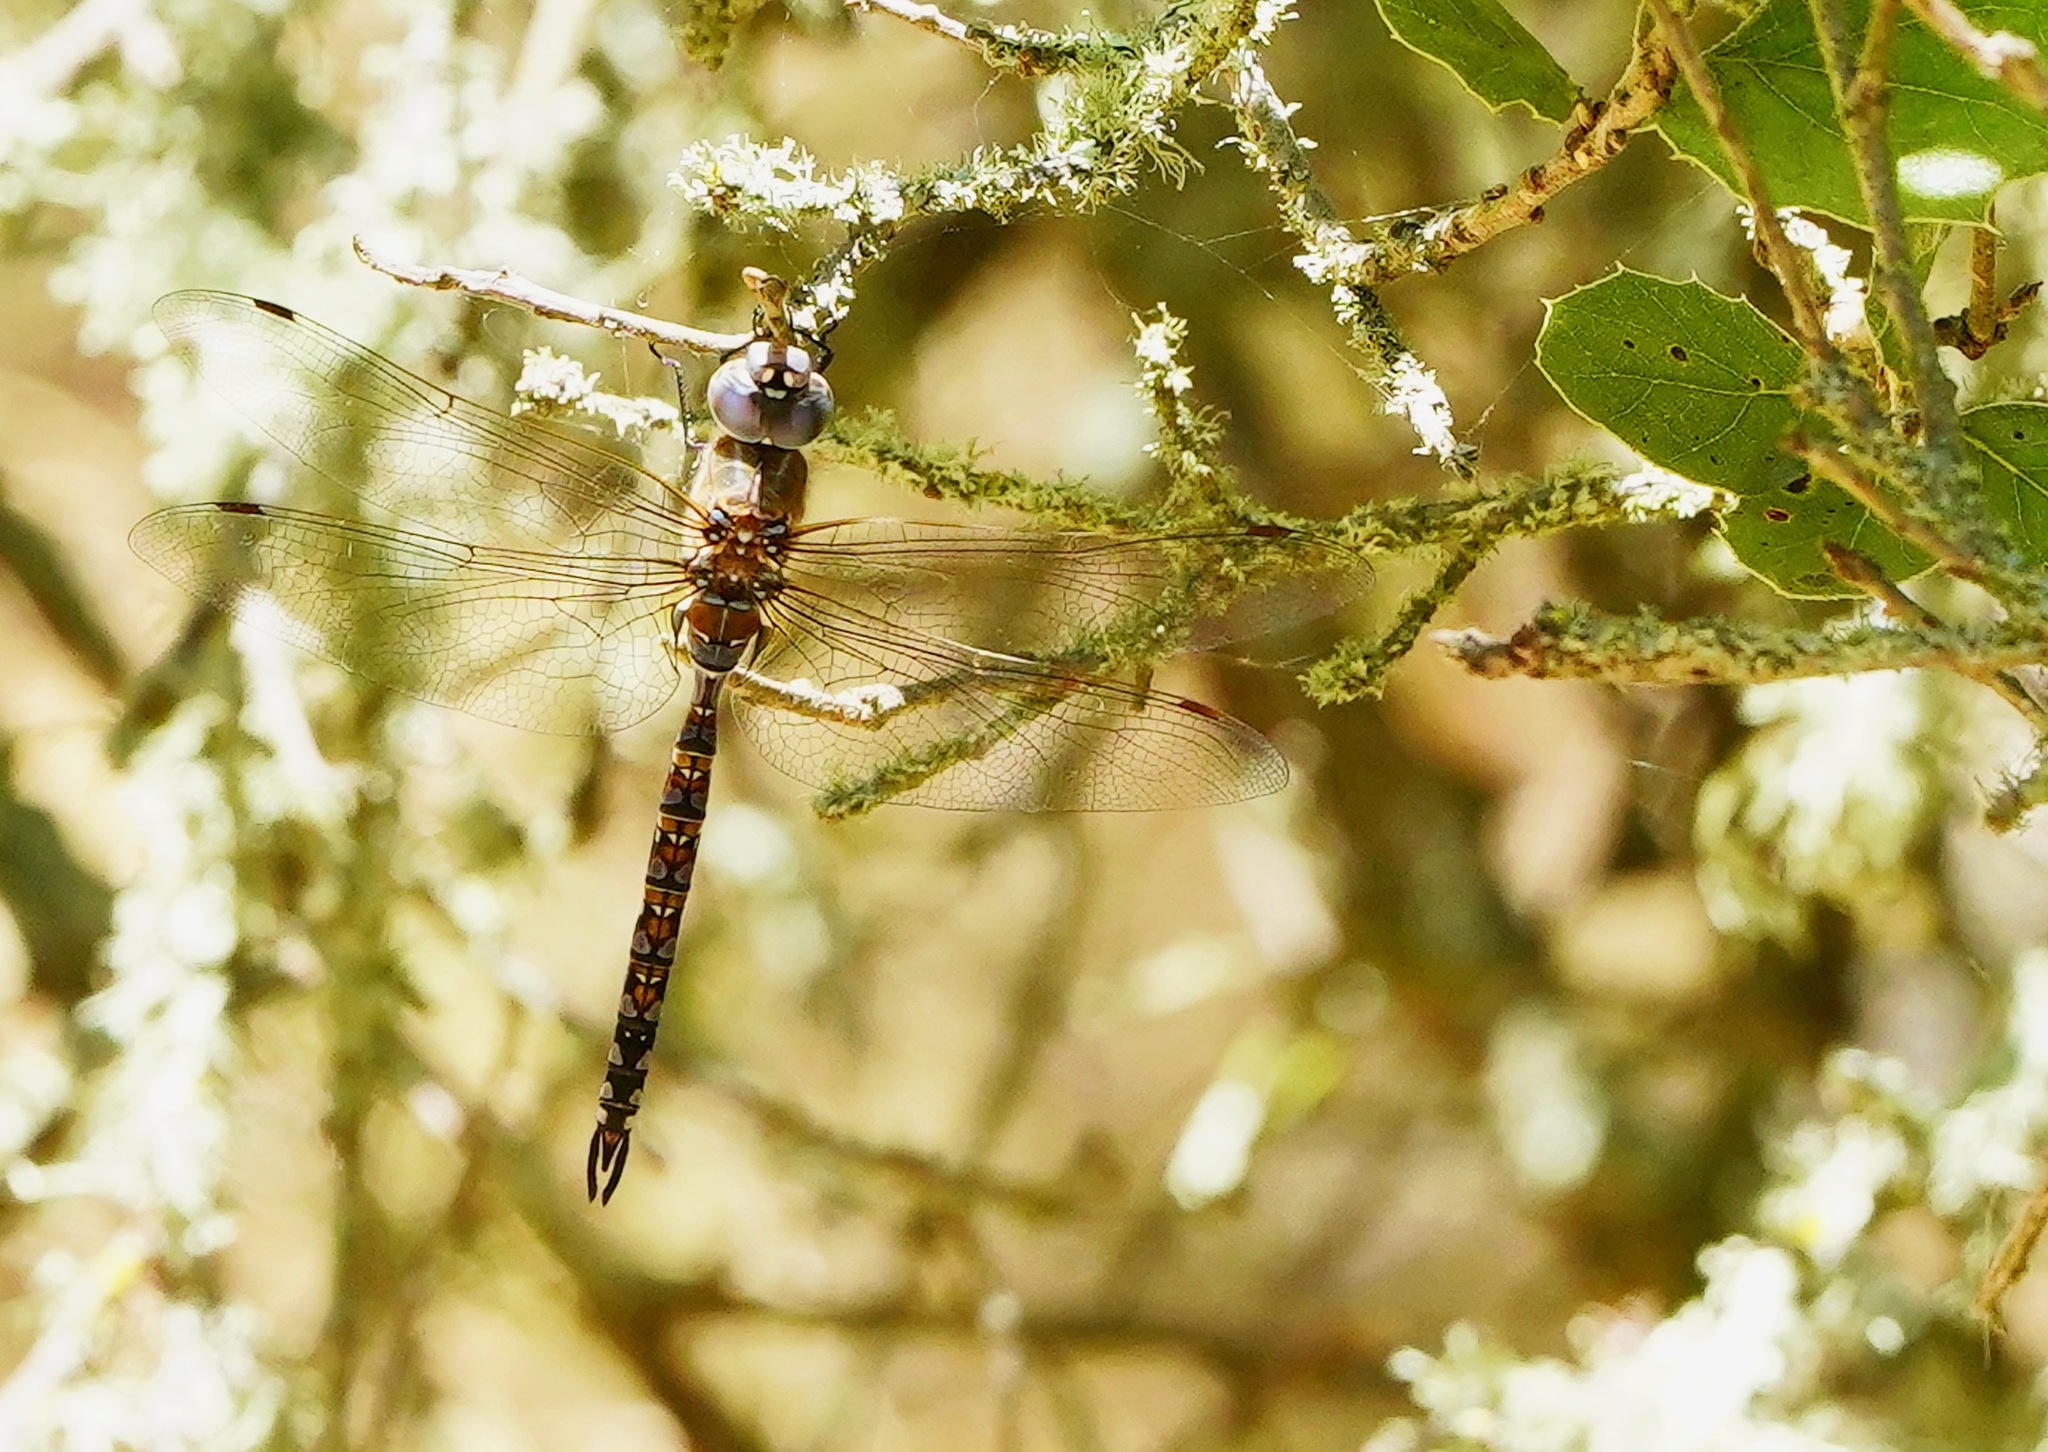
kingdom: Animalia
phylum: Arthropoda
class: Insecta
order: Odonata
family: Aeshnidae
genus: Rhionaeschna
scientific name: Rhionaeschna multicolor
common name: Blue-eyed darner
